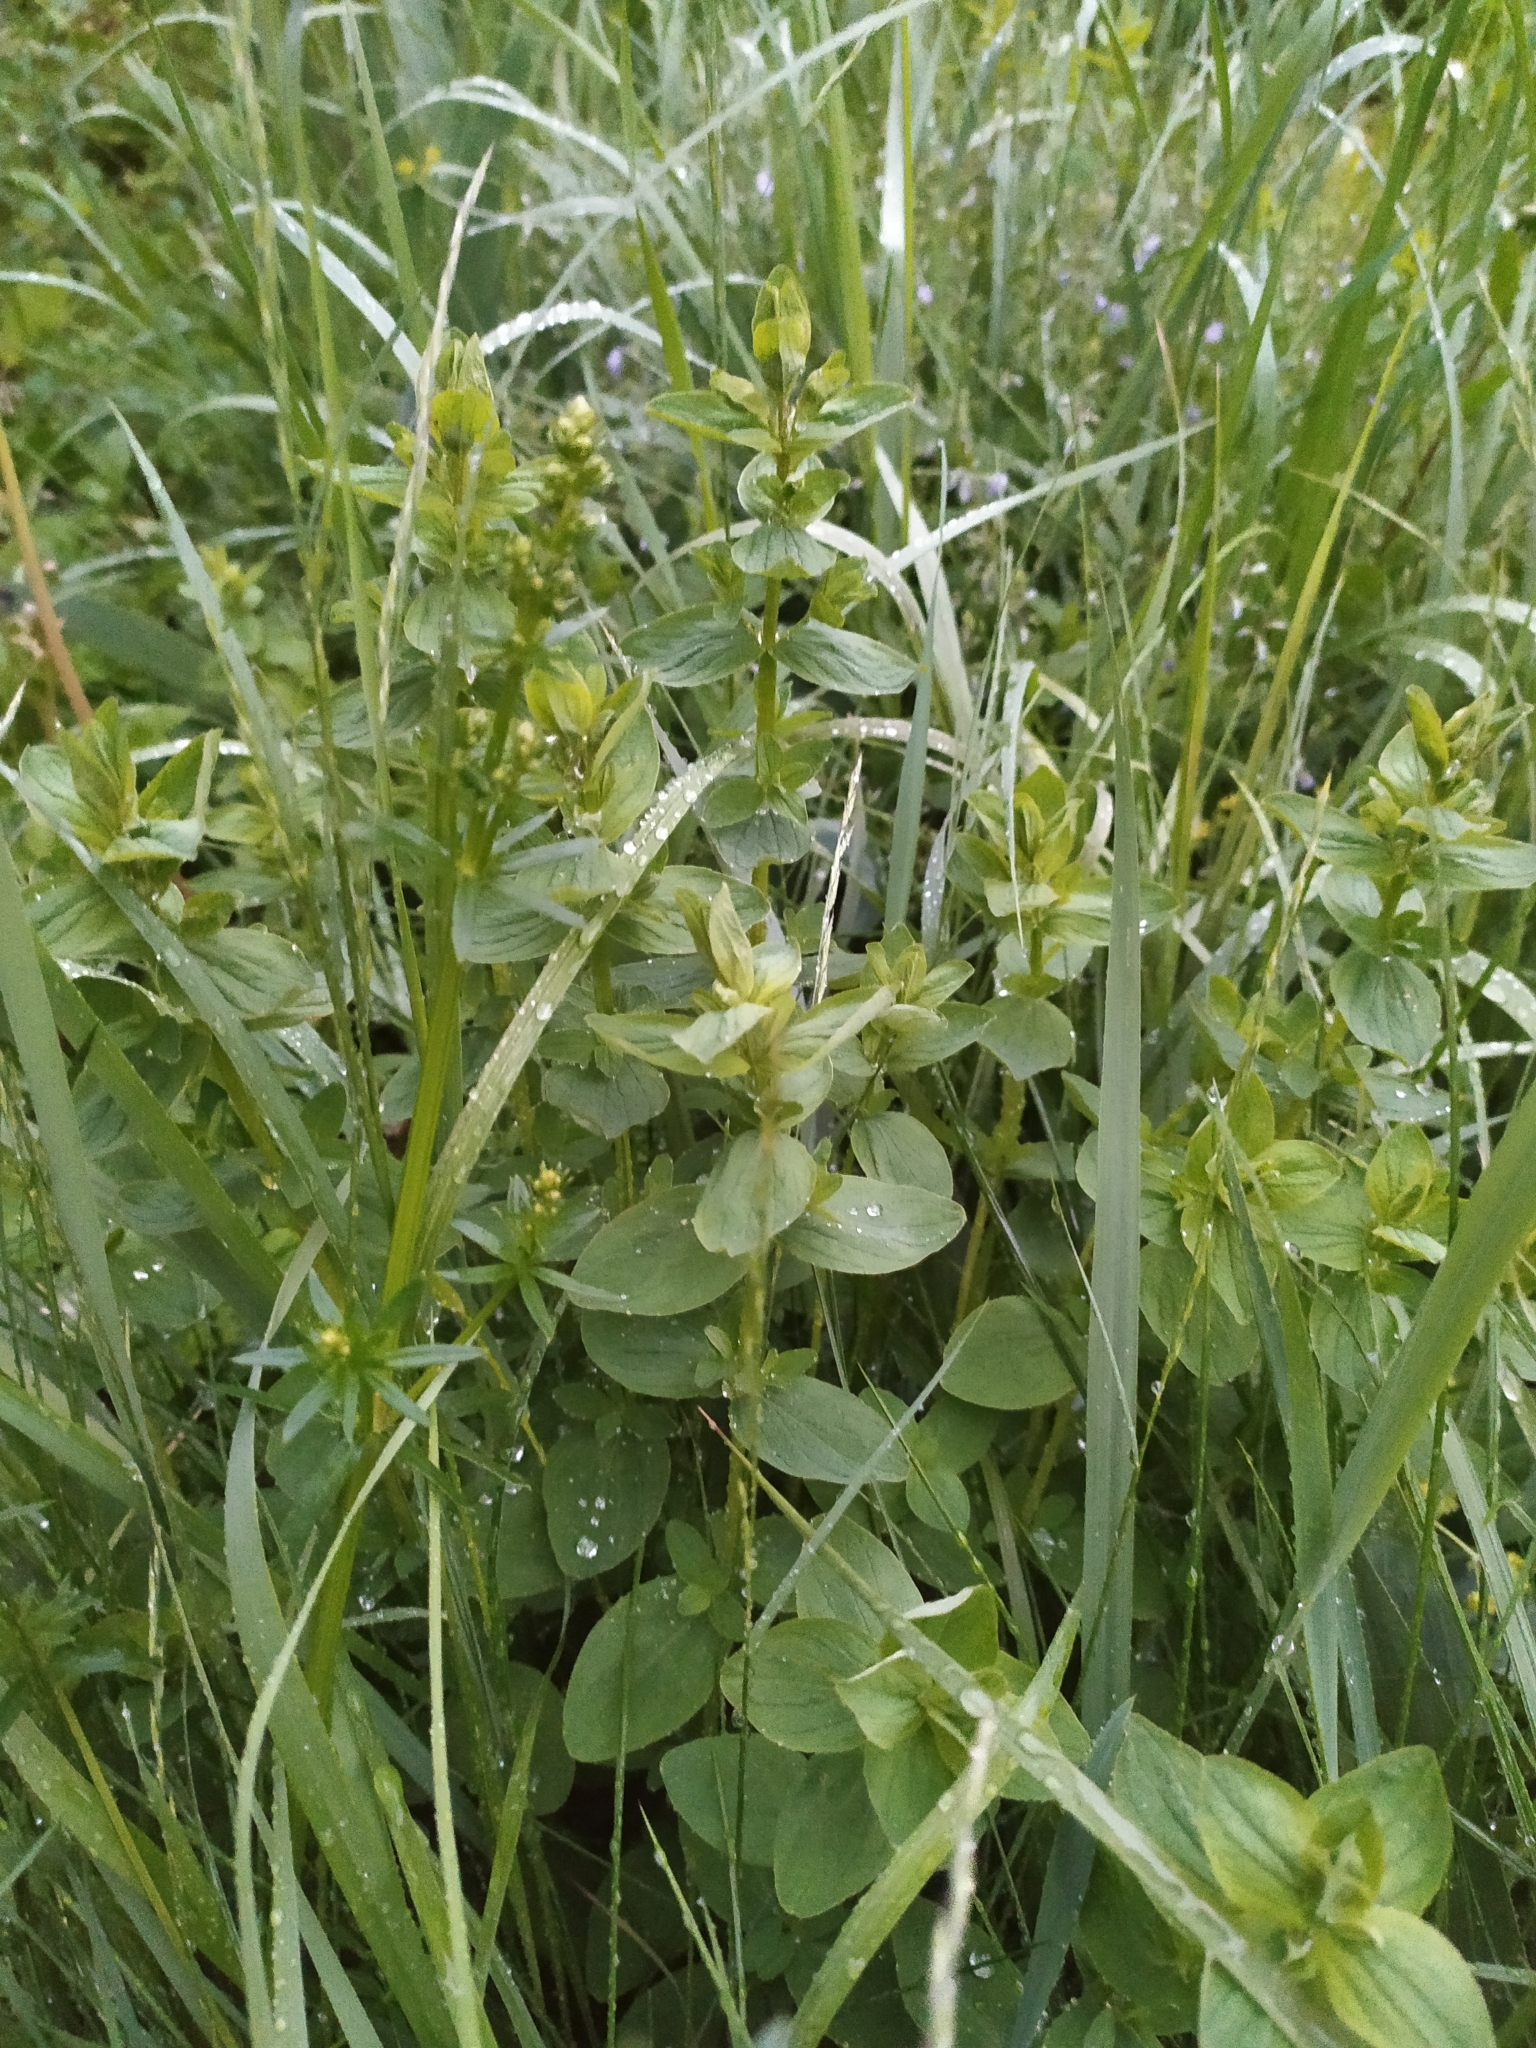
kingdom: Plantae
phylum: Tracheophyta
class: Magnoliopsida
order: Malpighiales
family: Hypericaceae
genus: Hypericum
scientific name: Hypericum maculatum
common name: Imperforate st. john's-wort
